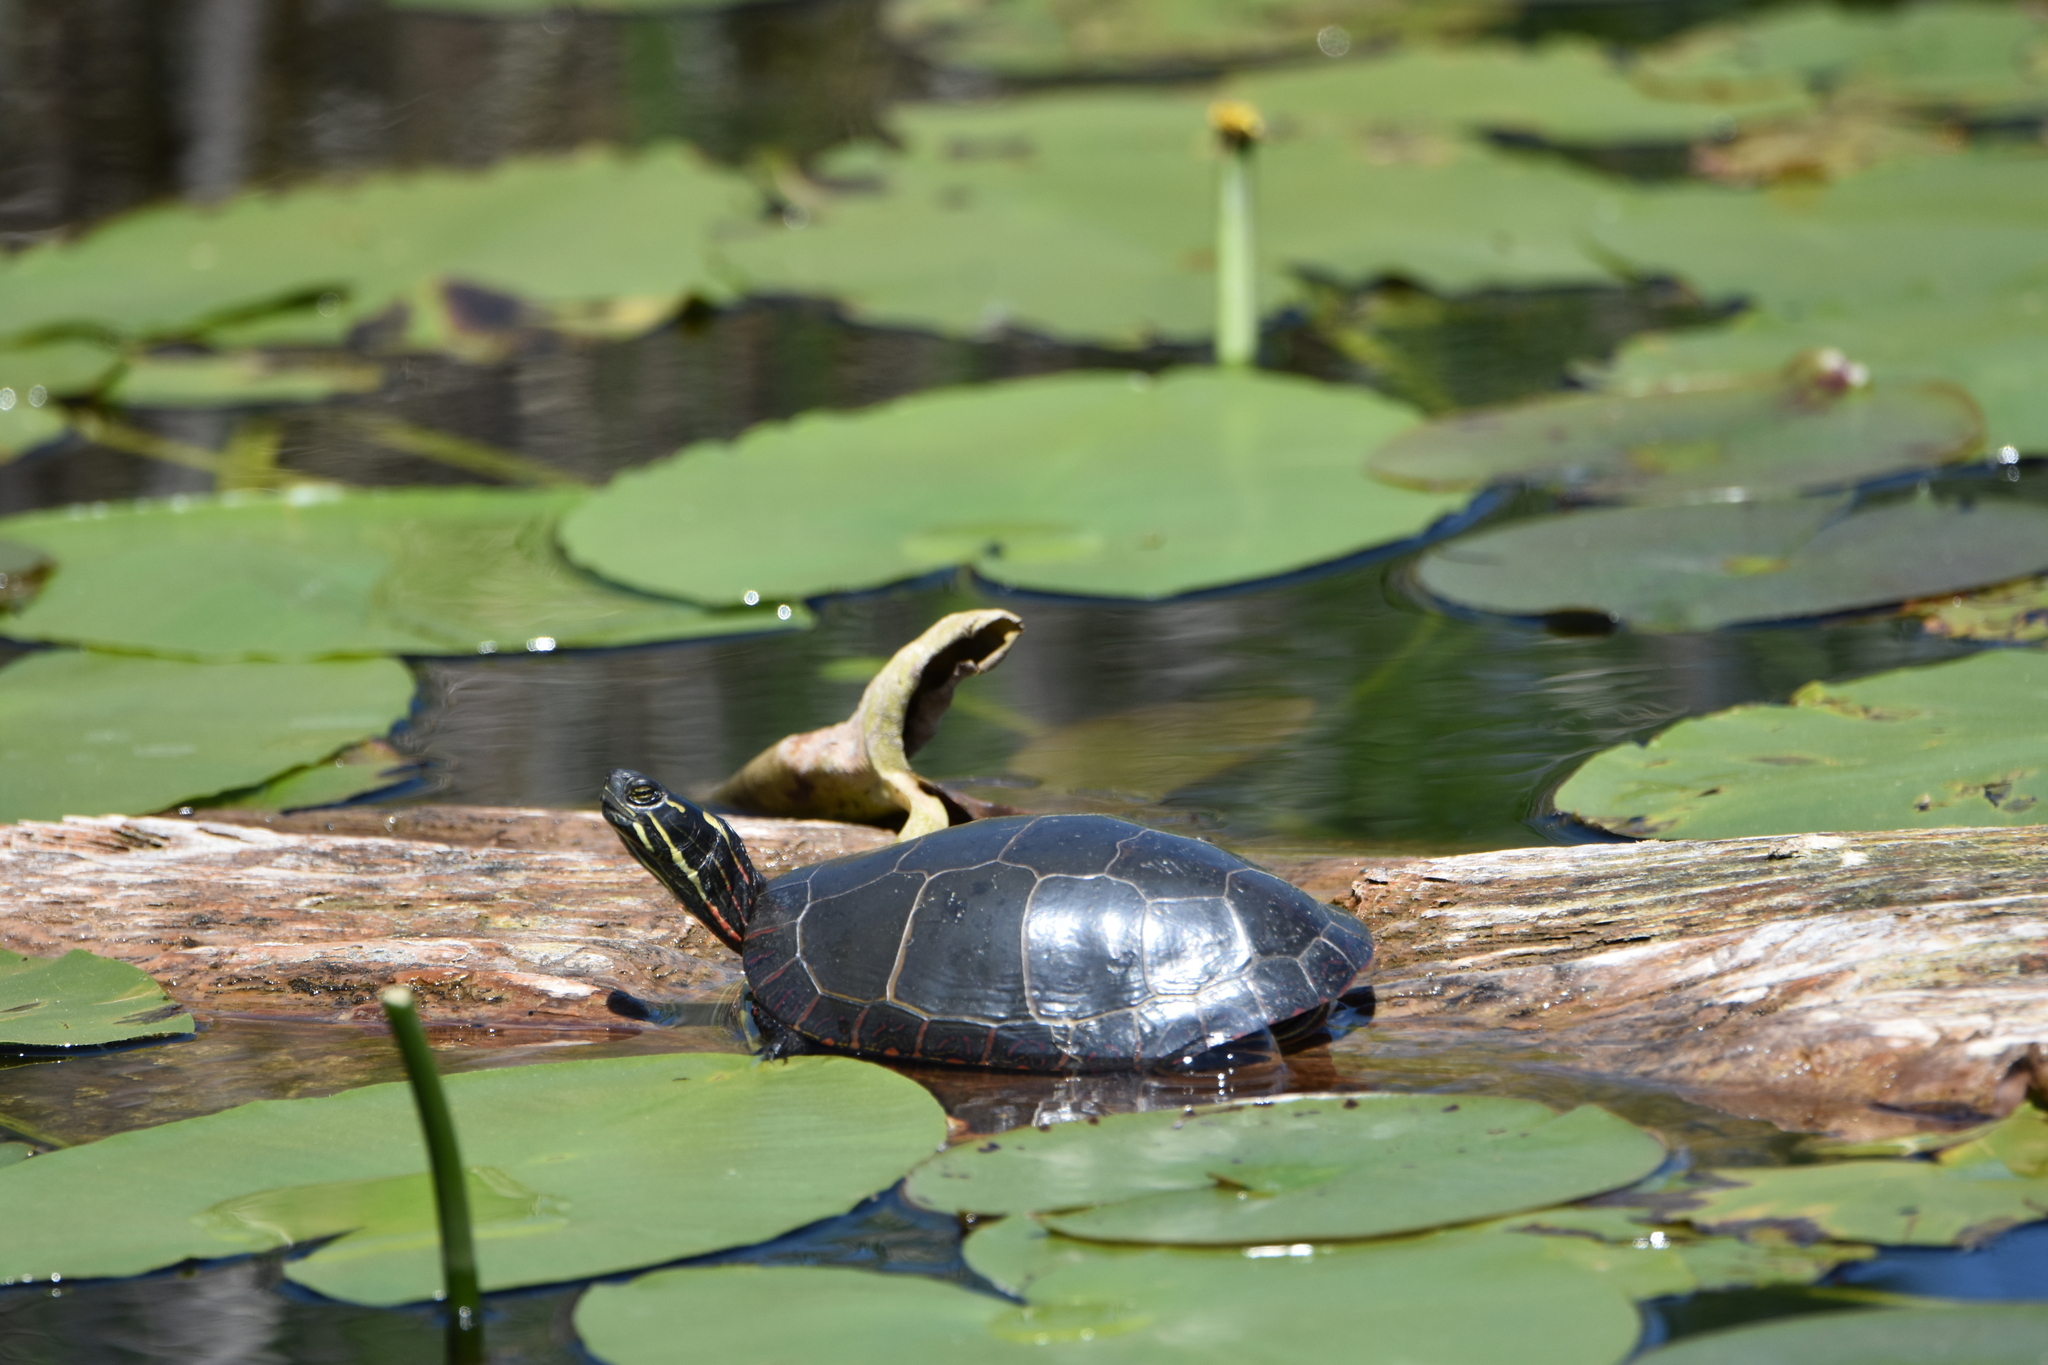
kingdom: Animalia
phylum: Chordata
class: Testudines
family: Emydidae
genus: Chrysemys
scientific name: Chrysemys picta
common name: Painted turtle
